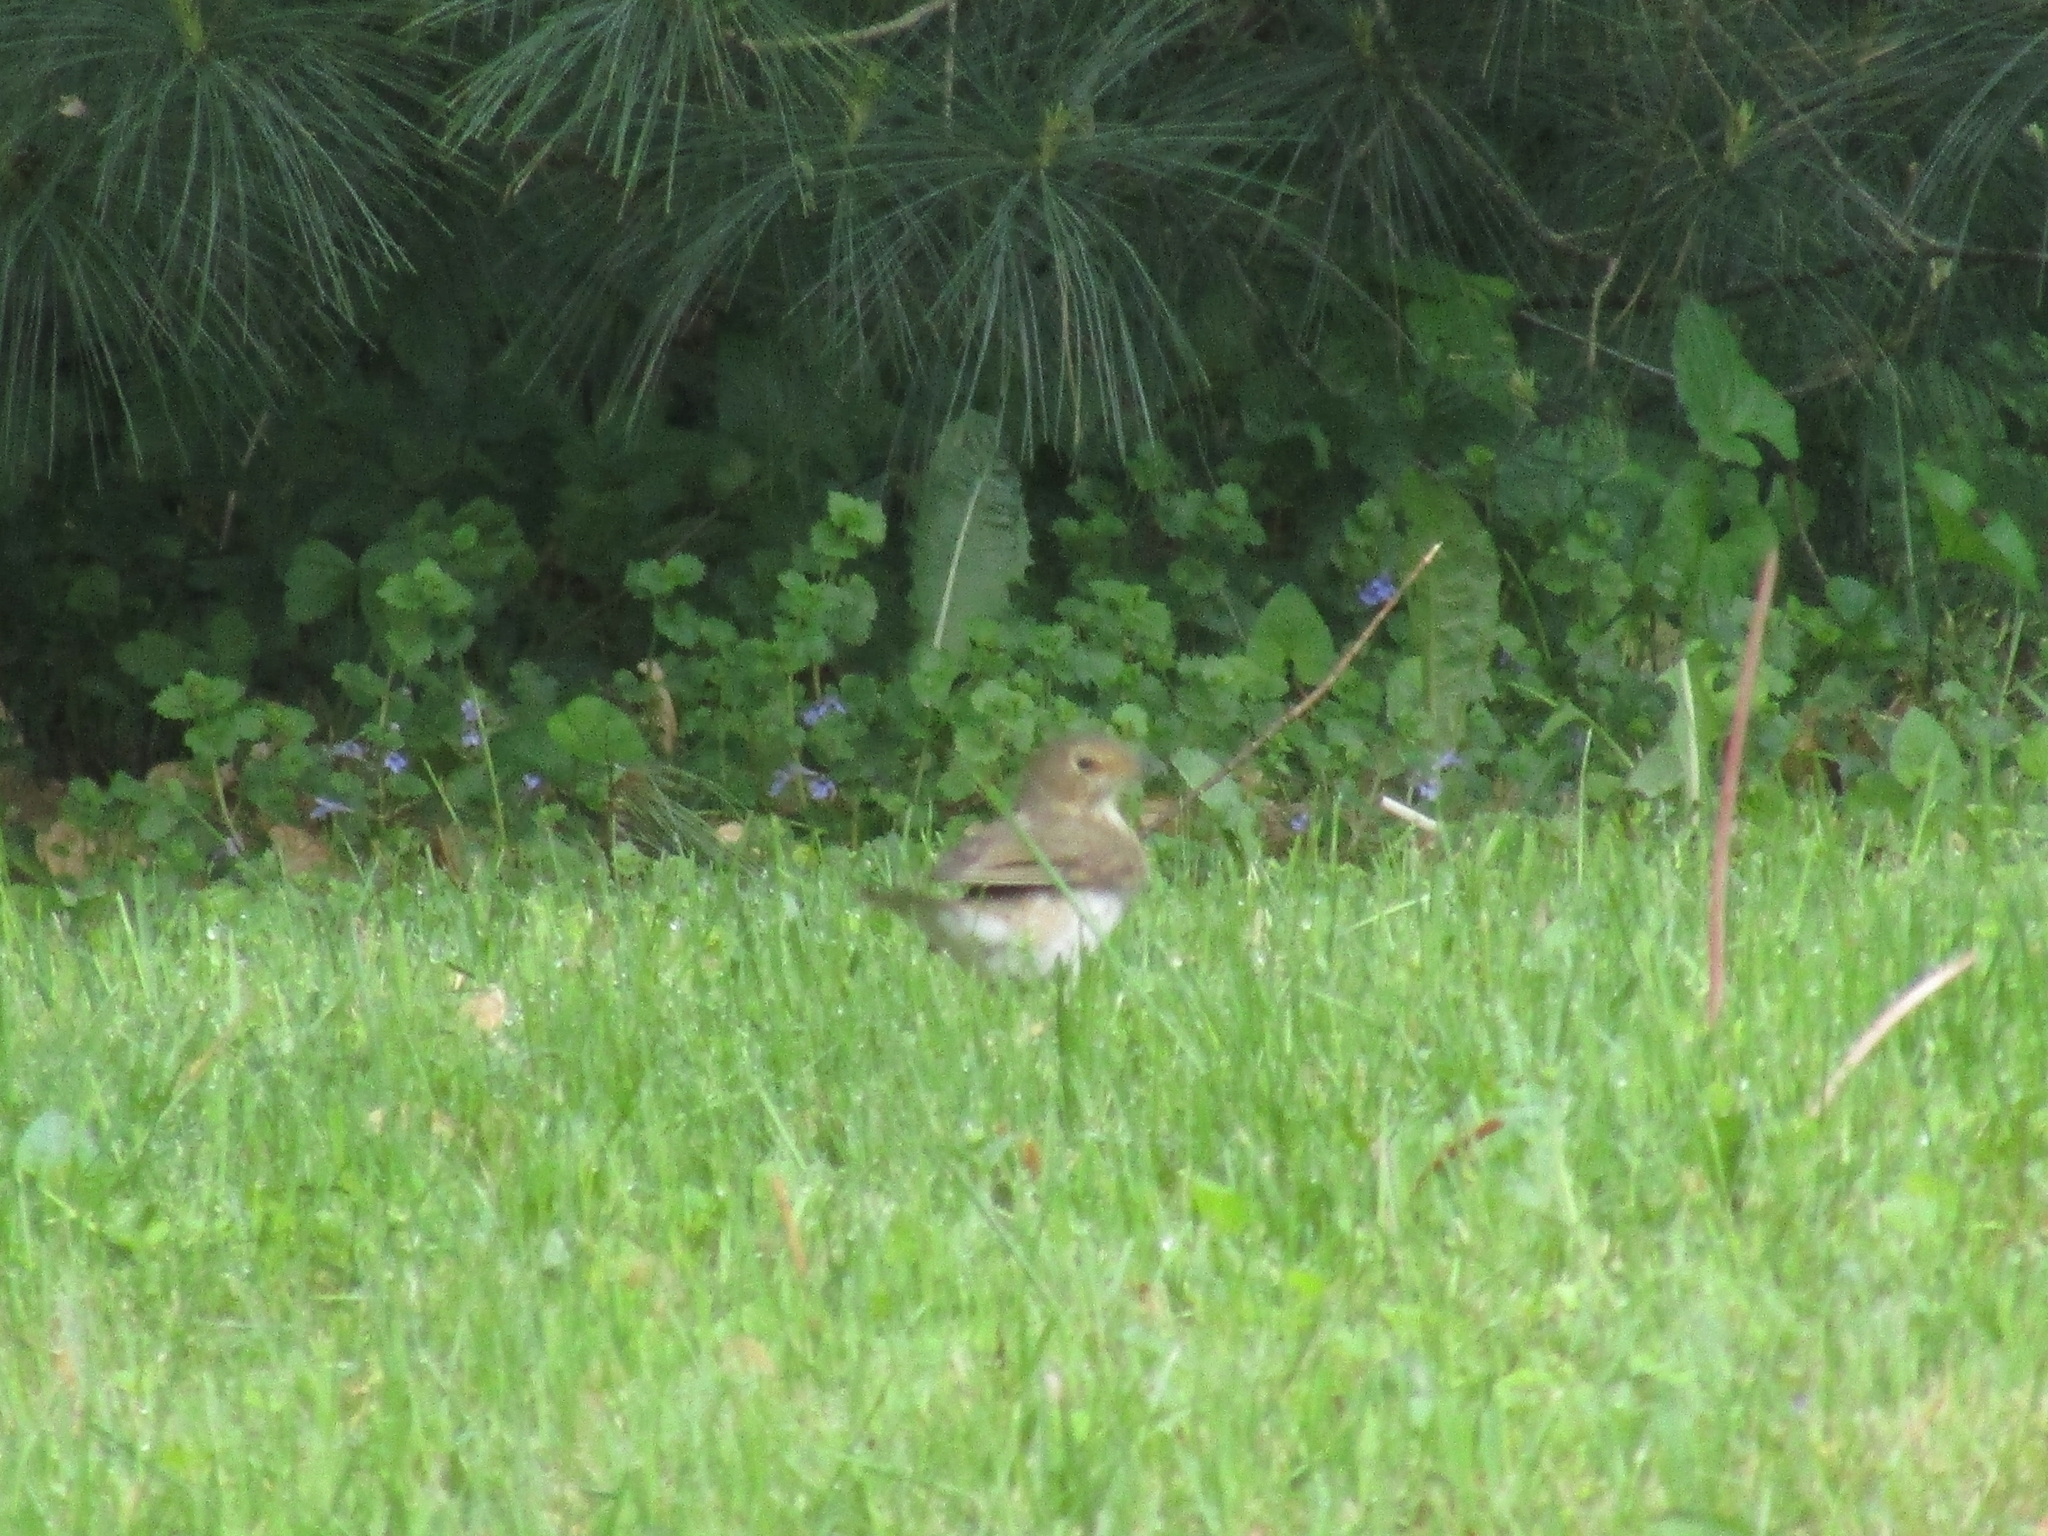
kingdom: Animalia
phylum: Chordata
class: Aves
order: Passeriformes
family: Turdidae
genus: Catharus
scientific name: Catharus ustulatus
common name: Swainson's thrush
